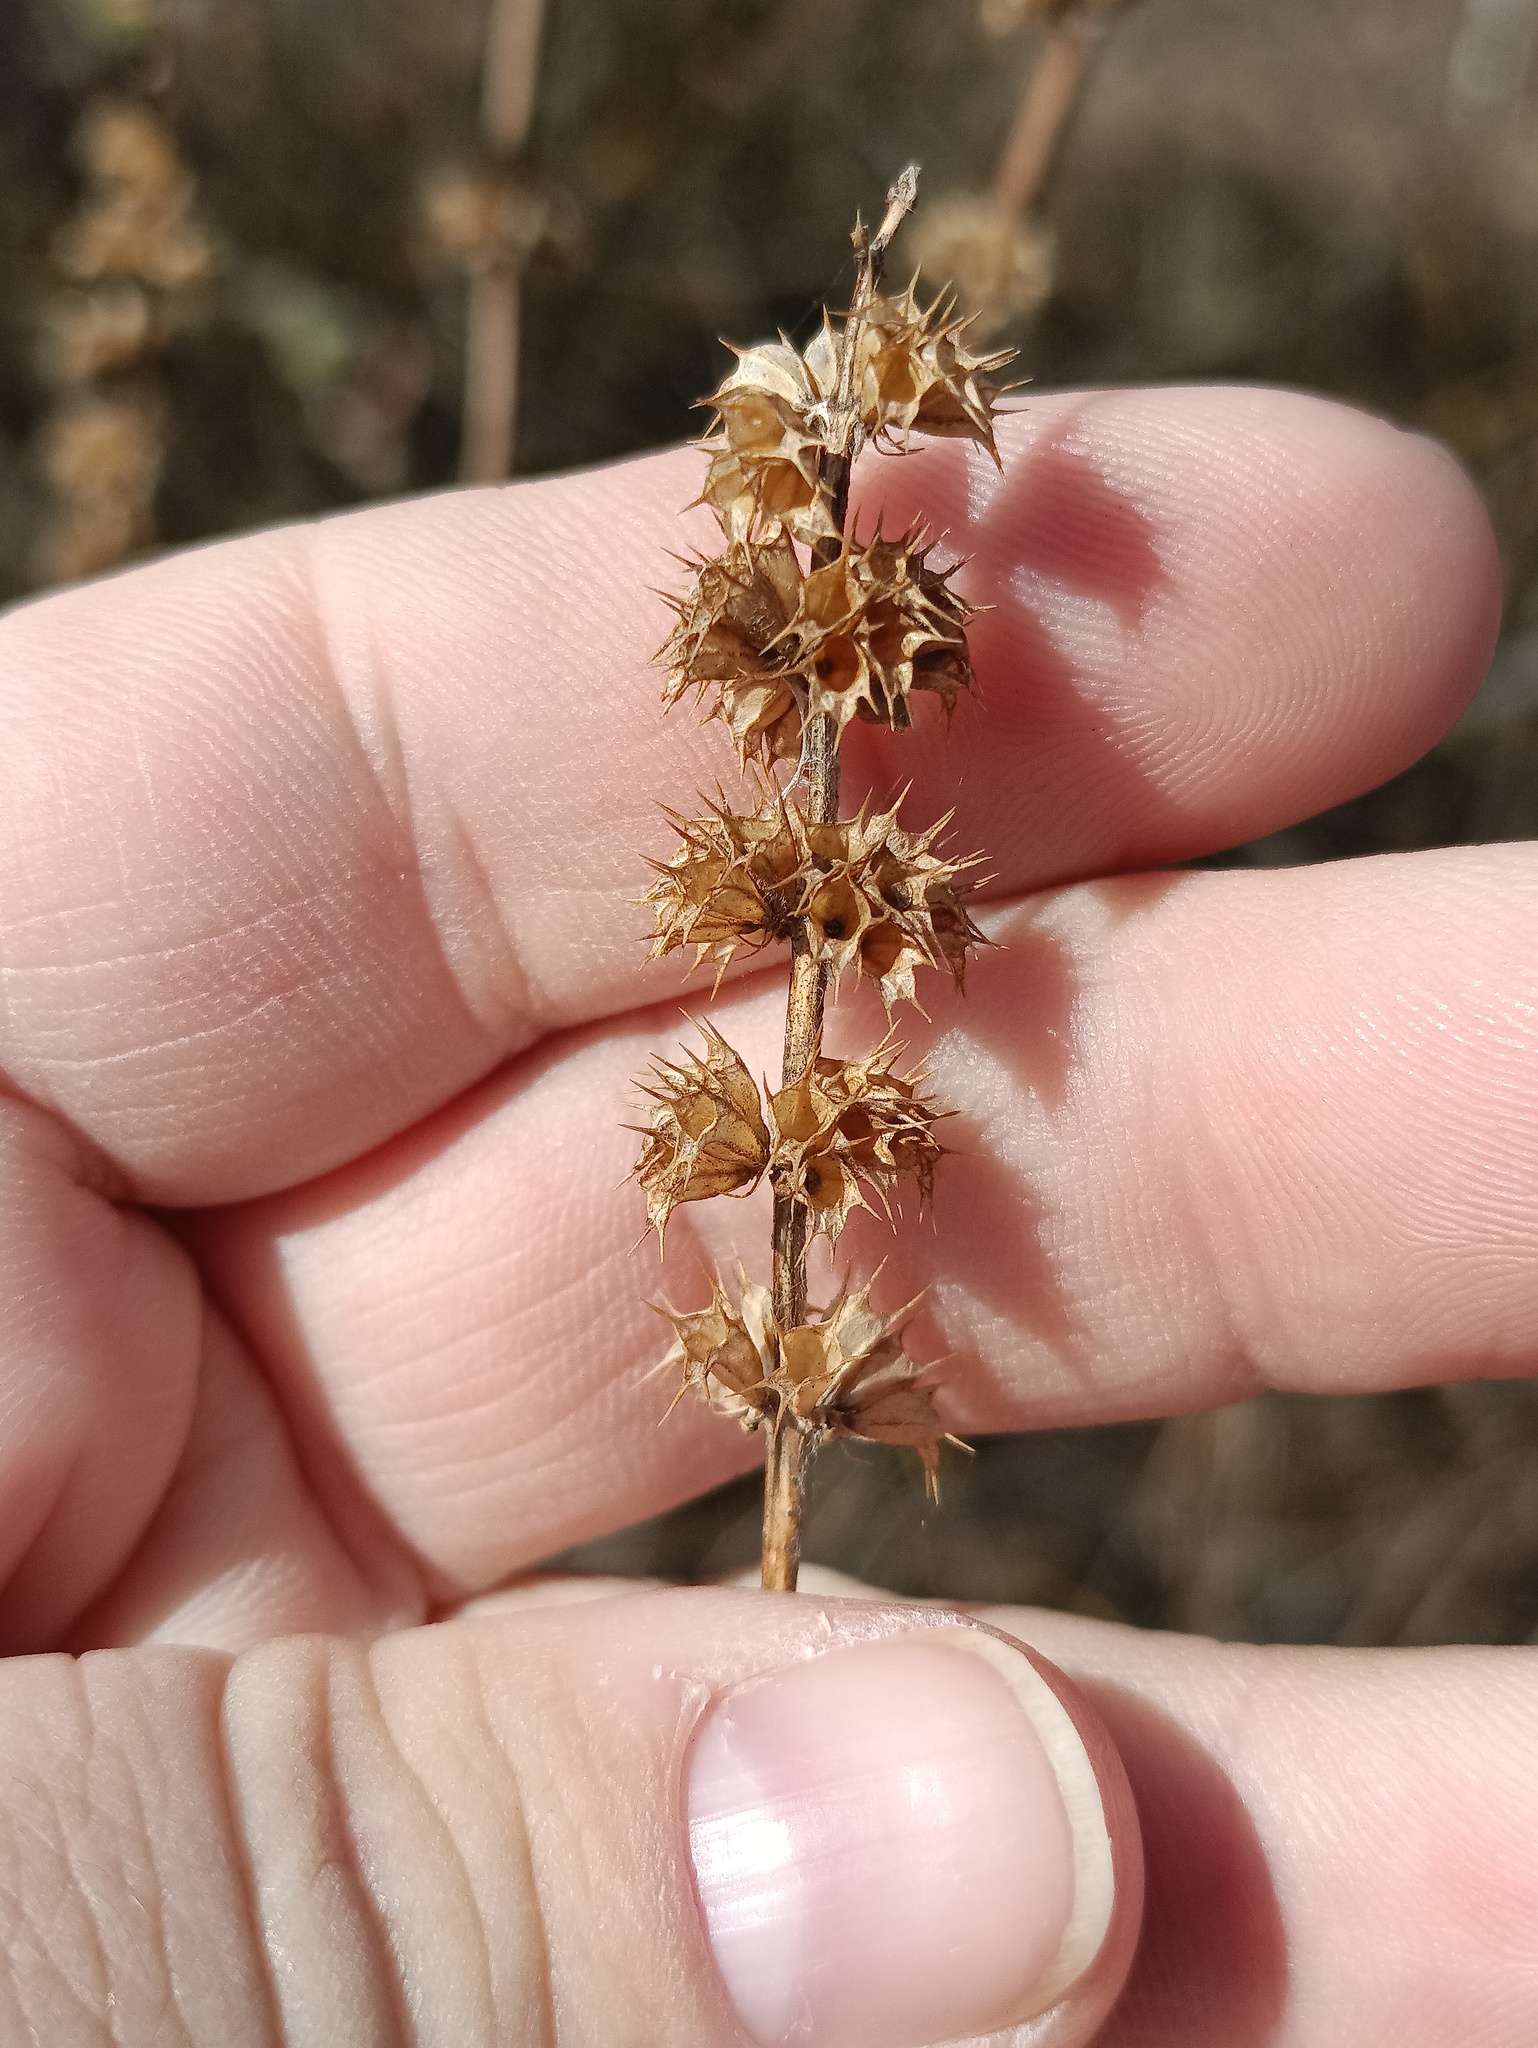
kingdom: Plantae
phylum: Tracheophyta
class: Magnoliopsida
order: Lamiales
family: Lamiaceae
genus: Leonurus
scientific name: Leonurus quinquelobatus
